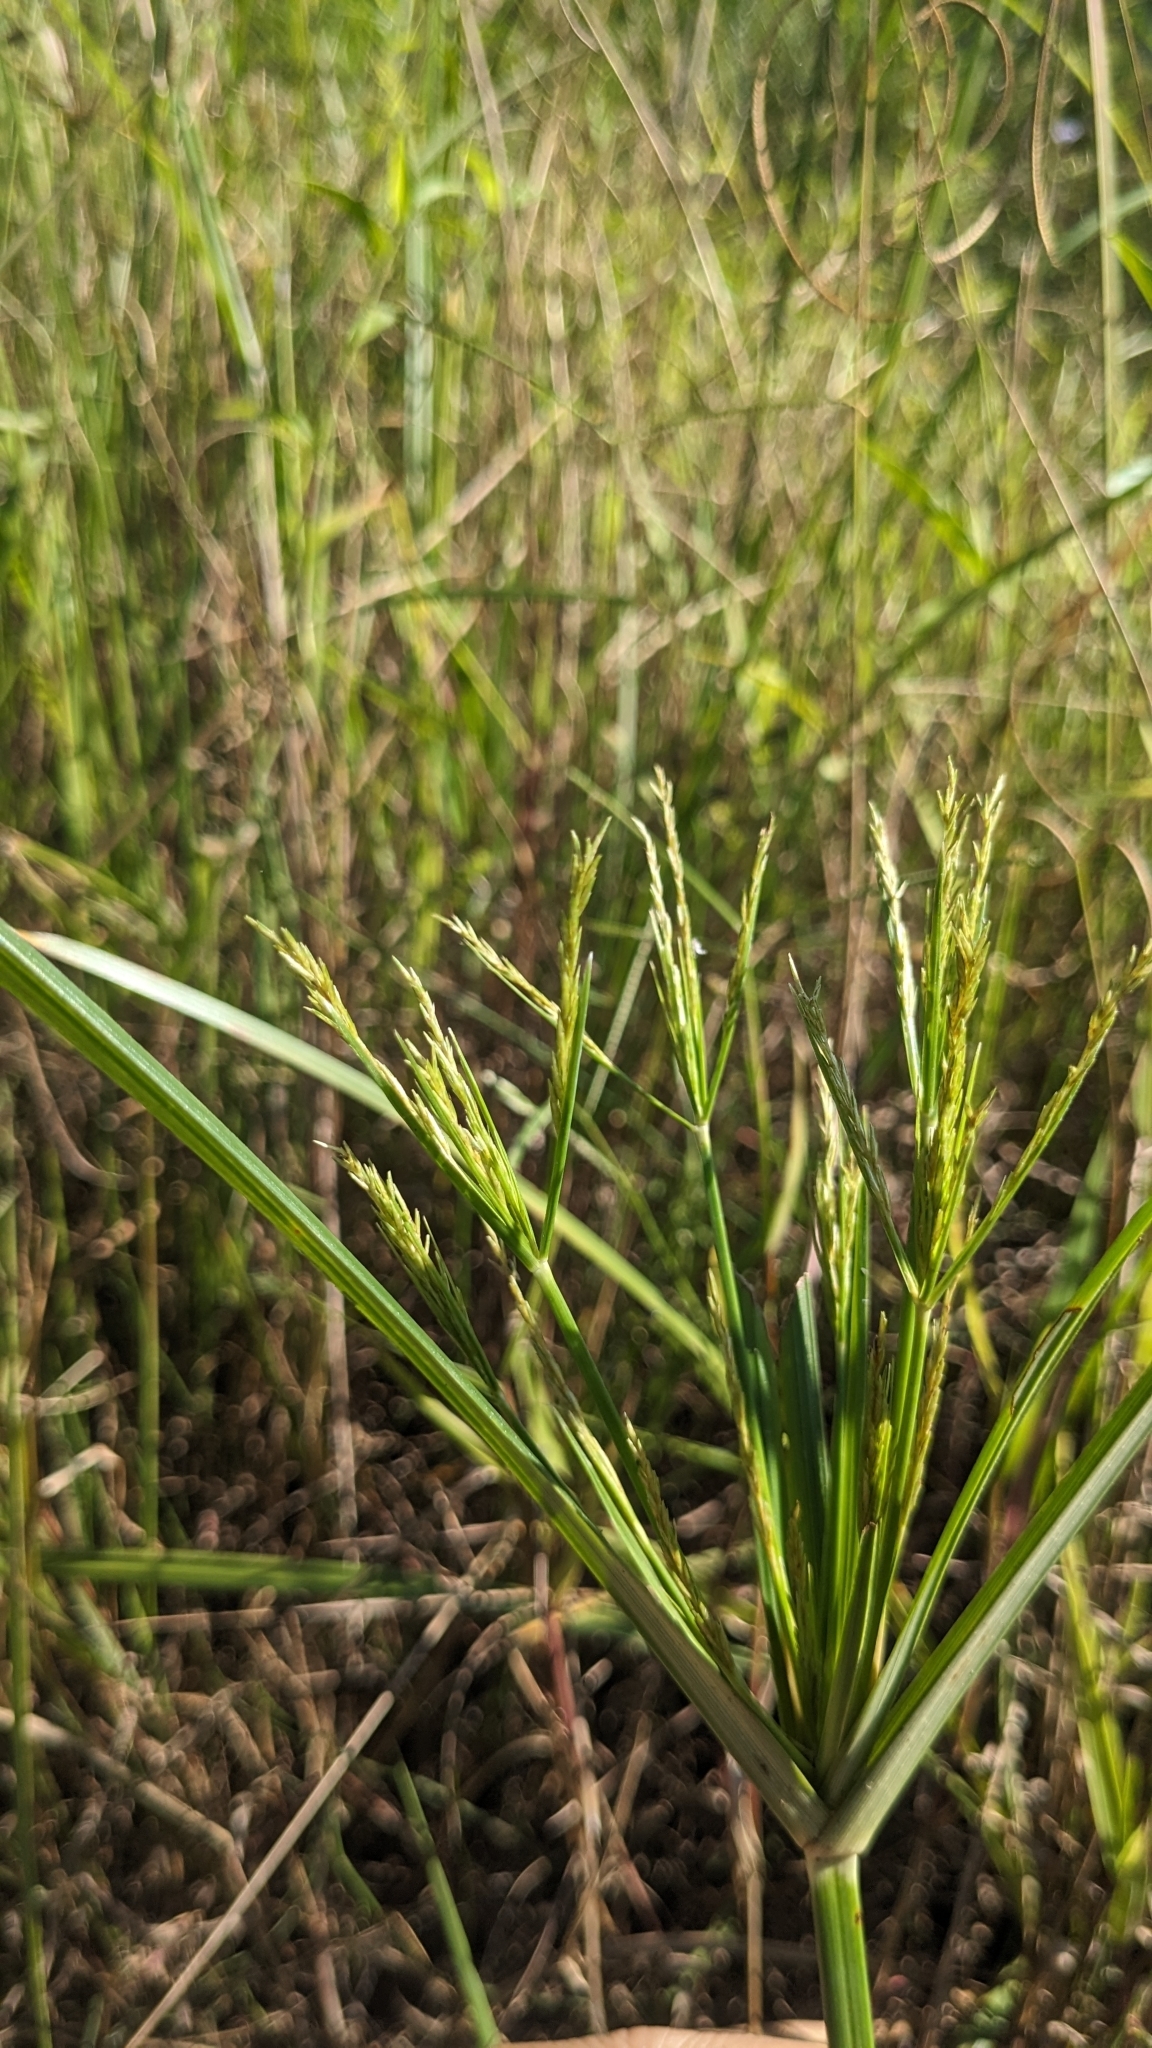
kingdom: Plantae
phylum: Tracheophyta
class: Liliopsida
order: Poales
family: Cyperaceae
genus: Cyperus
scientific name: Cyperus nutans
